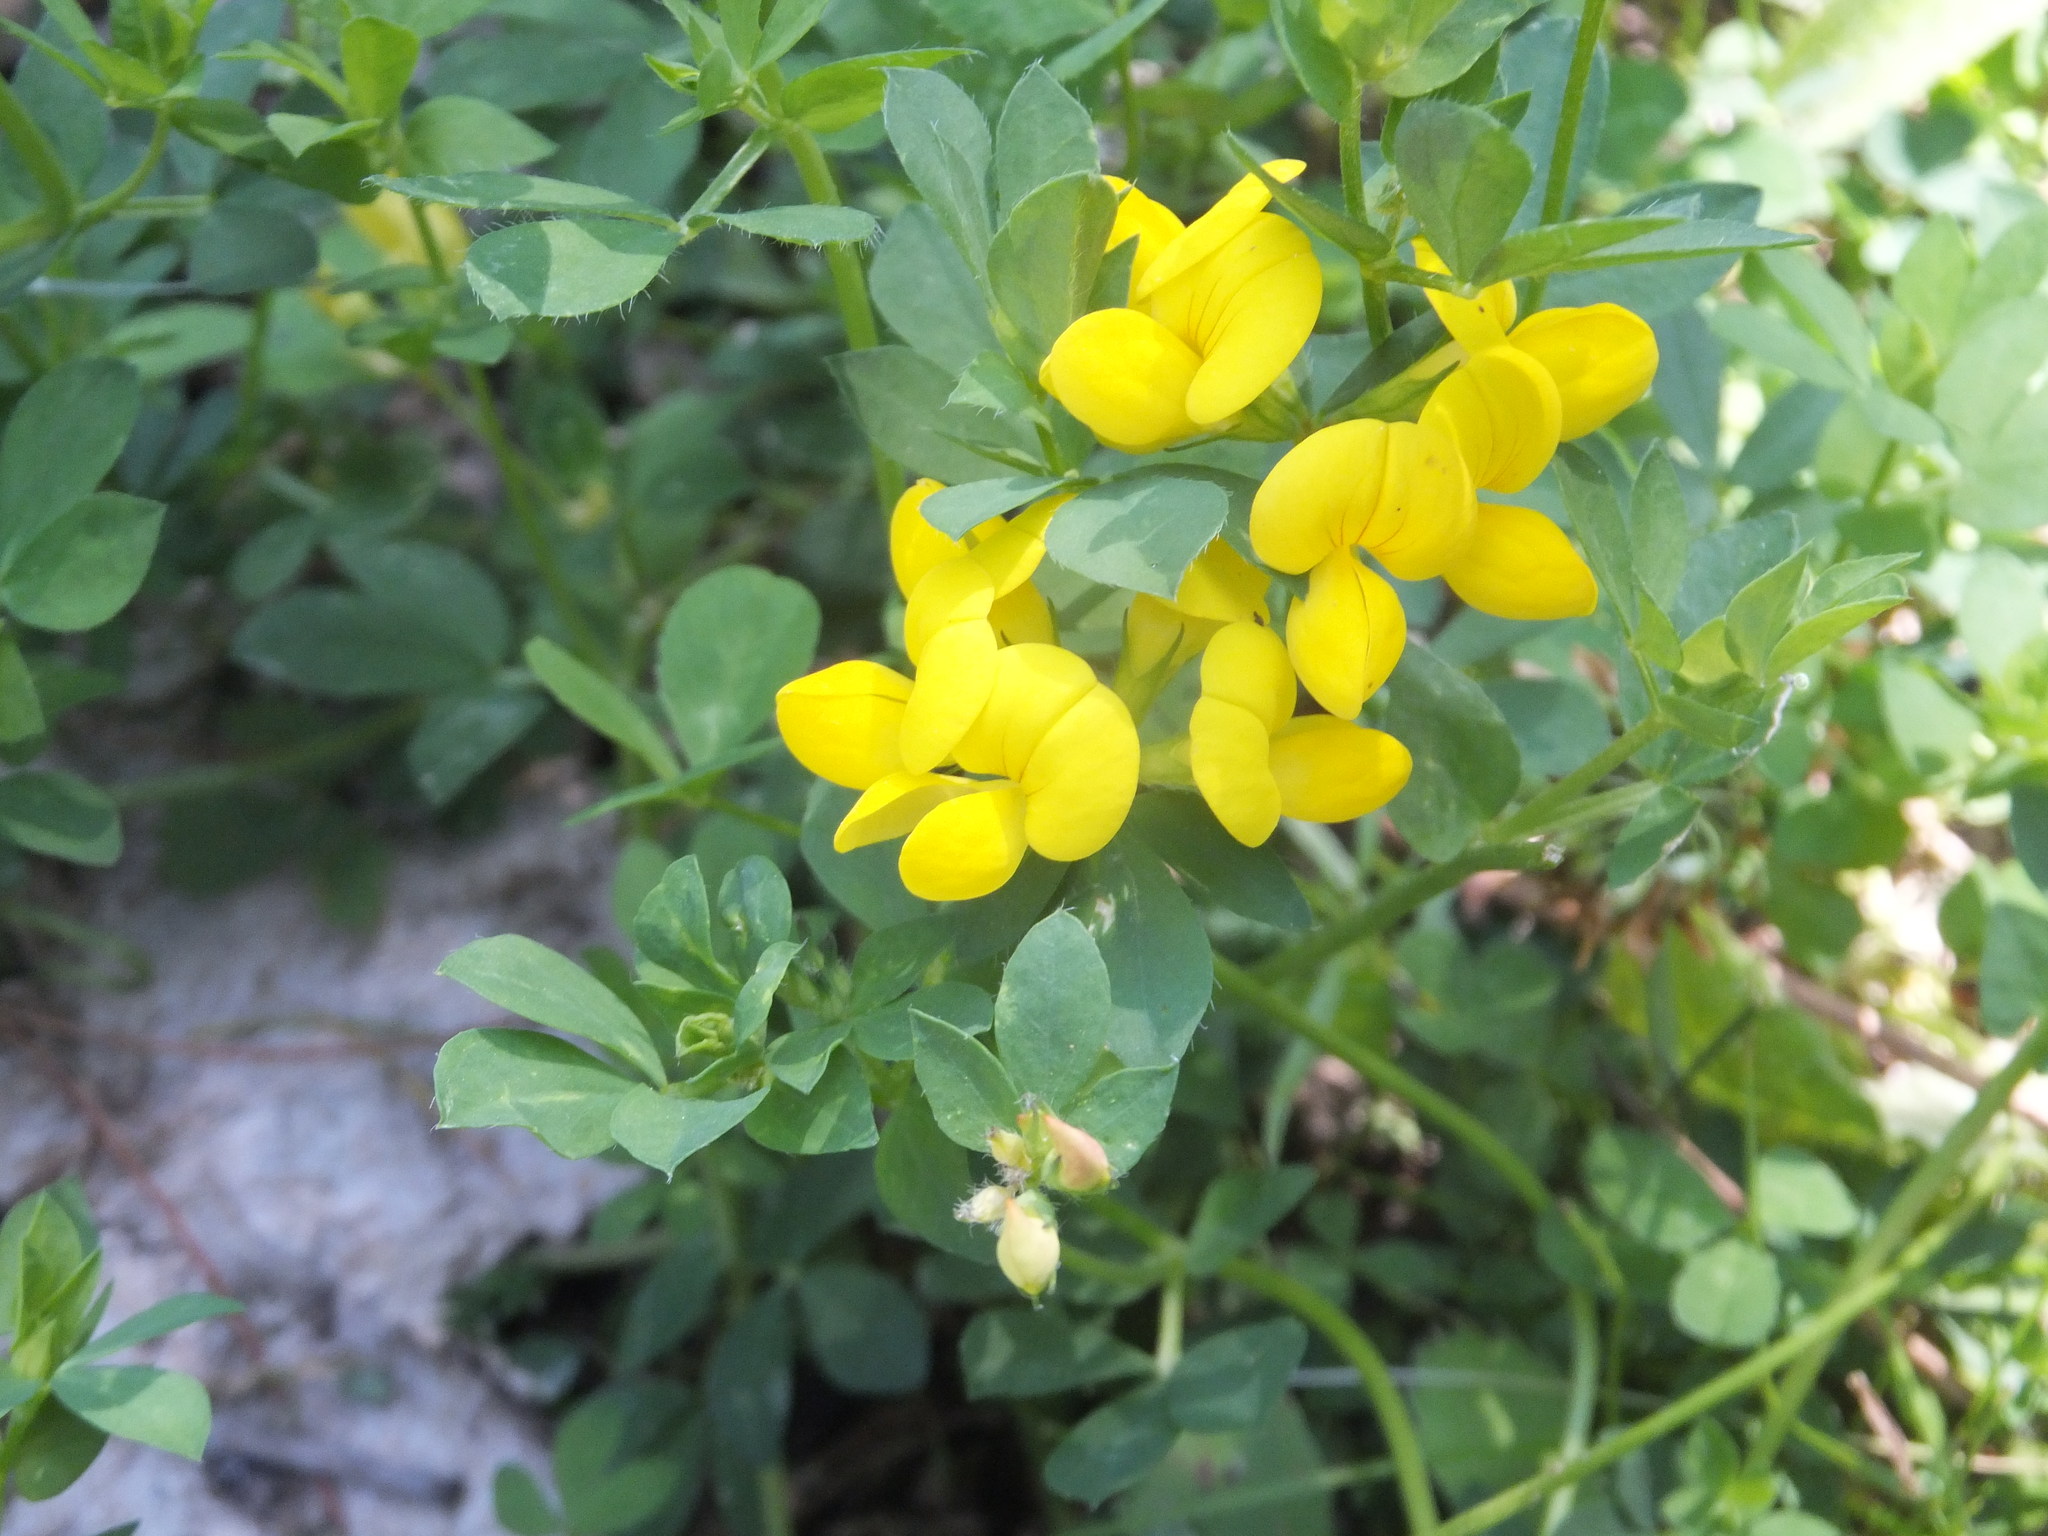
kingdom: Plantae
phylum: Tracheophyta
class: Magnoliopsida
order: Fabales
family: Fabaceae
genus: Lotus
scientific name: Lotus corniculatus
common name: Common bird's-foot-trefoil
